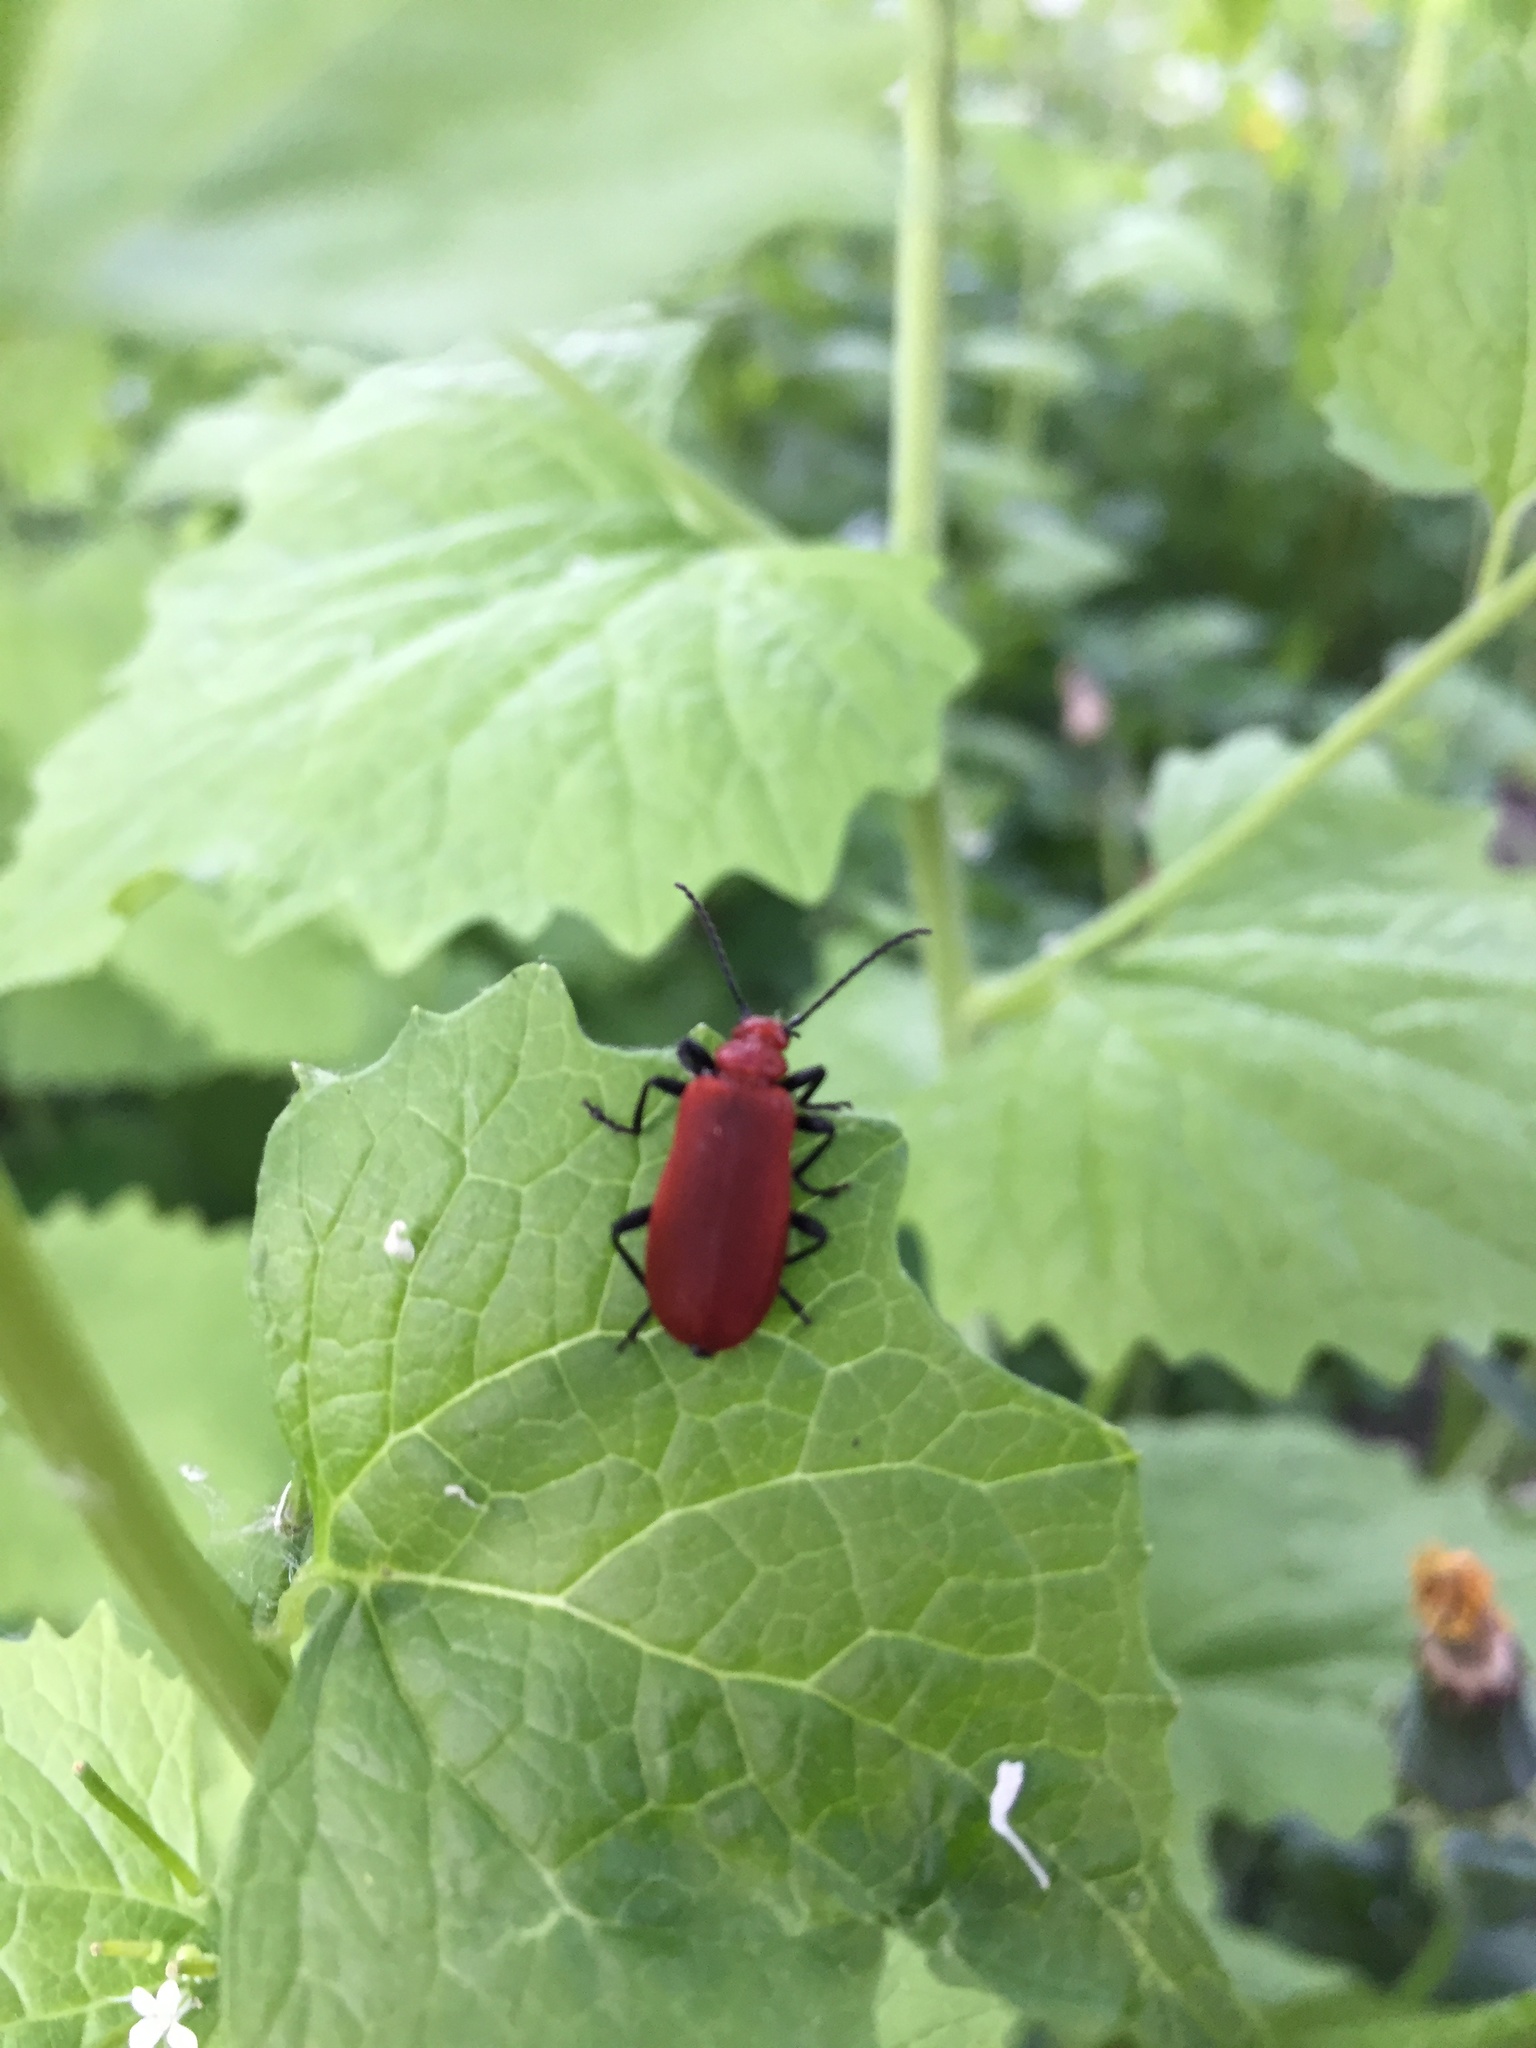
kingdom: Animalia
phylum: Arthropoda
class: Insecta
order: Coleoptera
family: Pyrochroidae
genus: Pyrochroa
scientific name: Pyrochroa serraticornis
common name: Red-headed cardinal beetle
